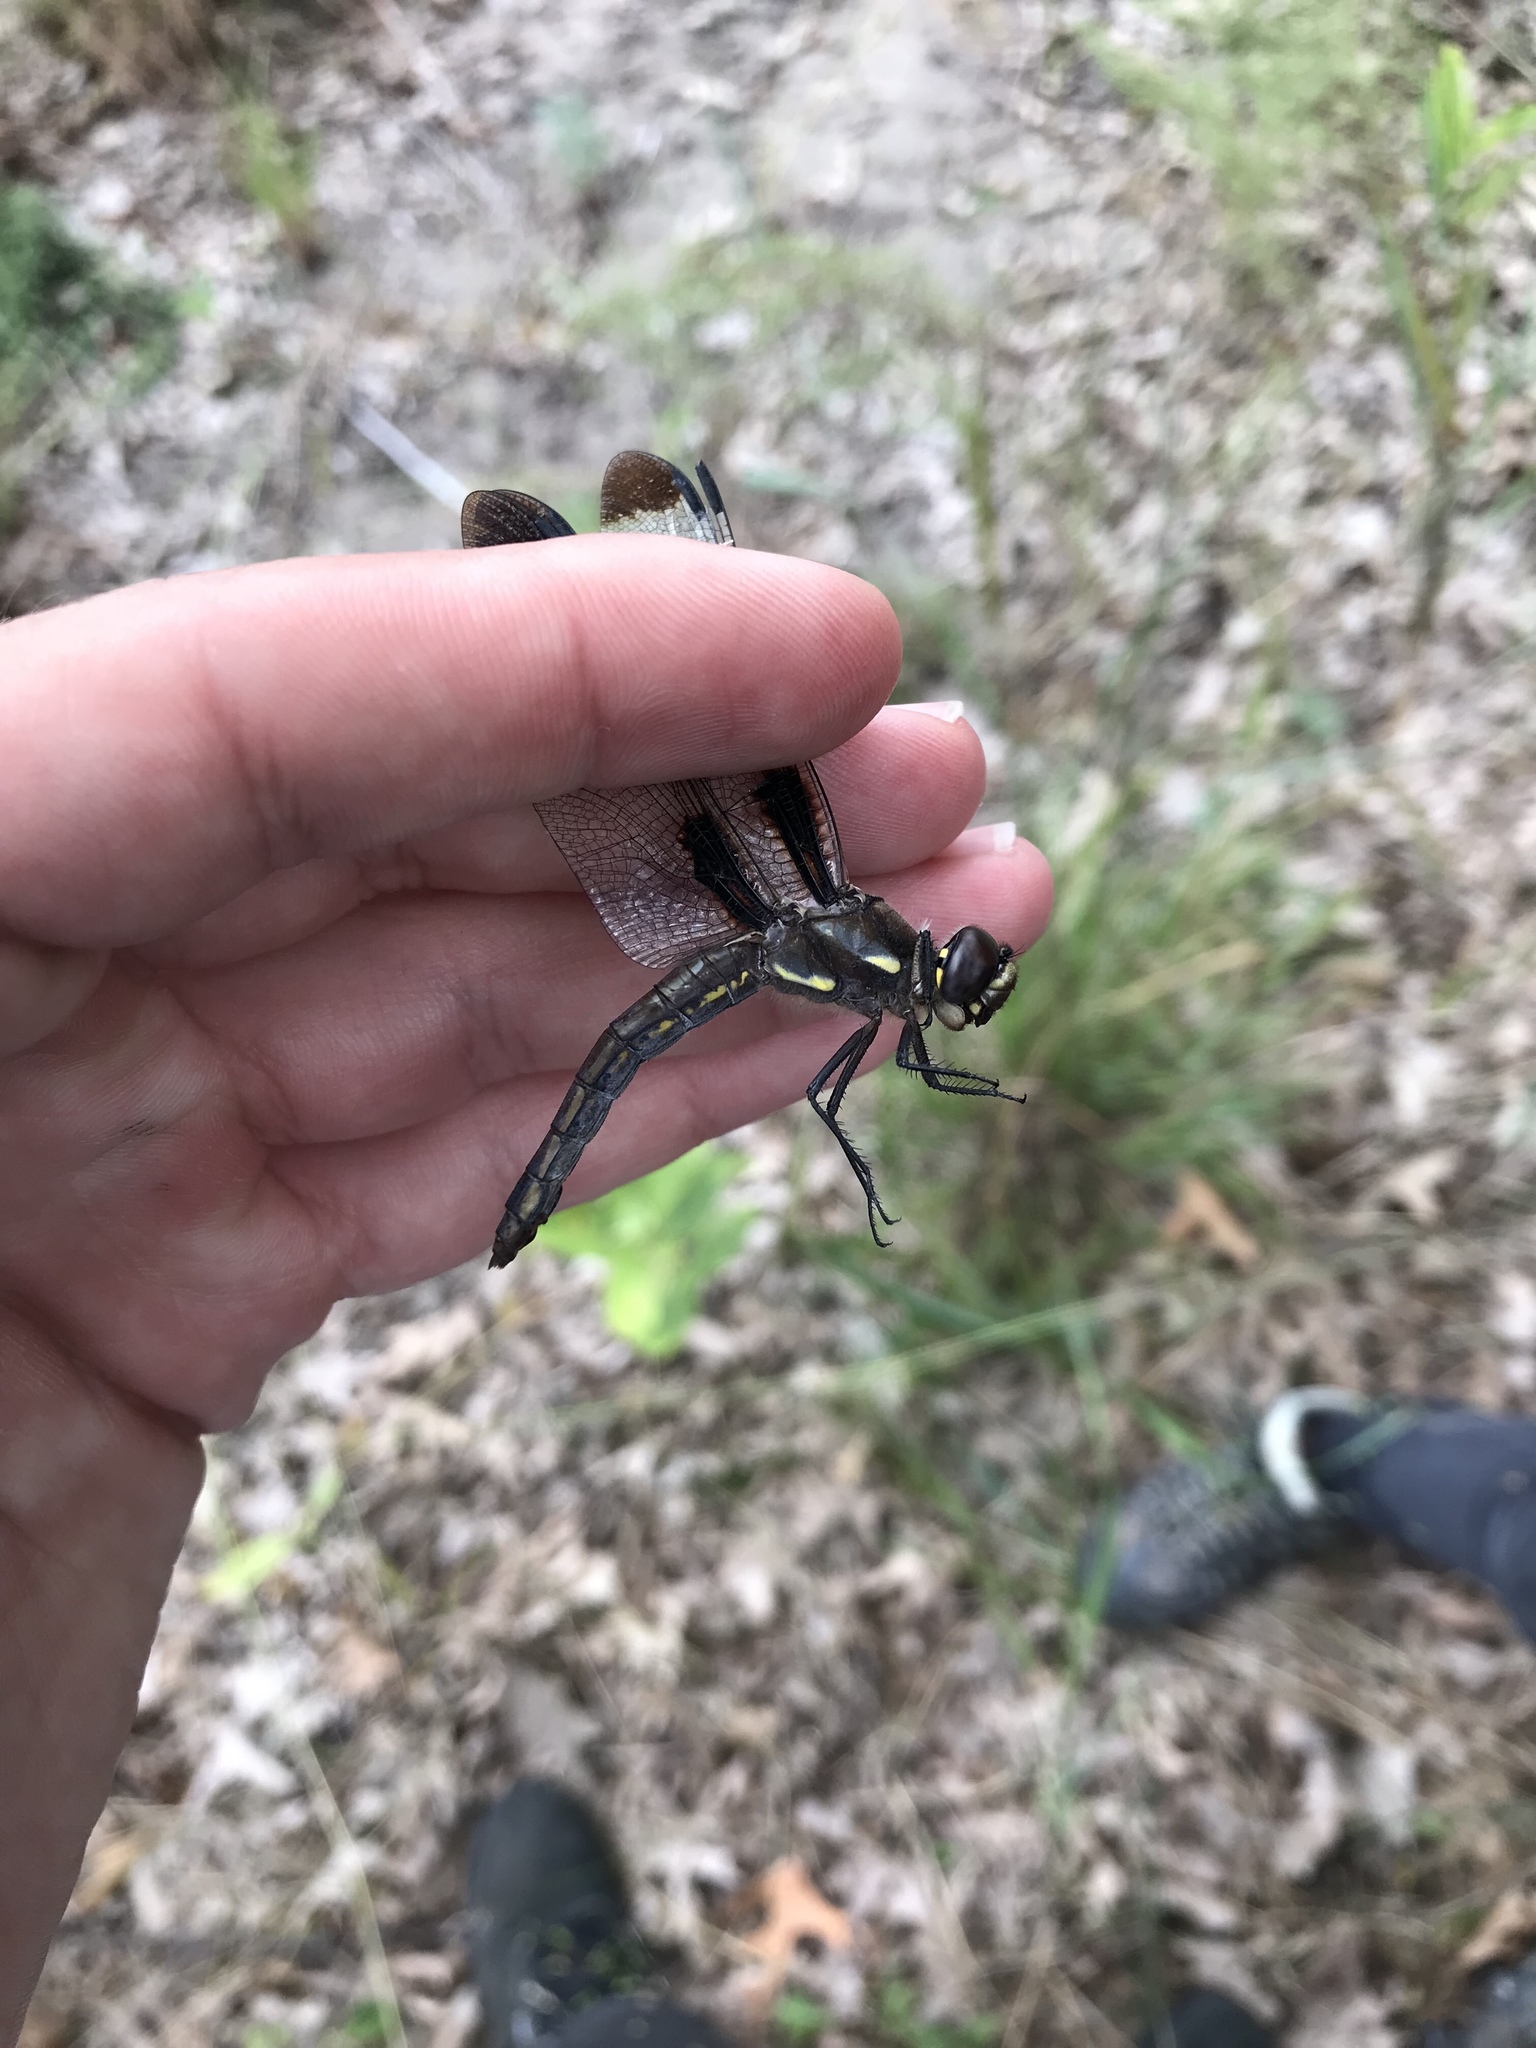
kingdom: Animalia
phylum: Arthropoda
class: Insecta
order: Odonata
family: Libellulidae
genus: Libellula
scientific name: Libellula pulchella
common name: Twelve-spotted skimmer
